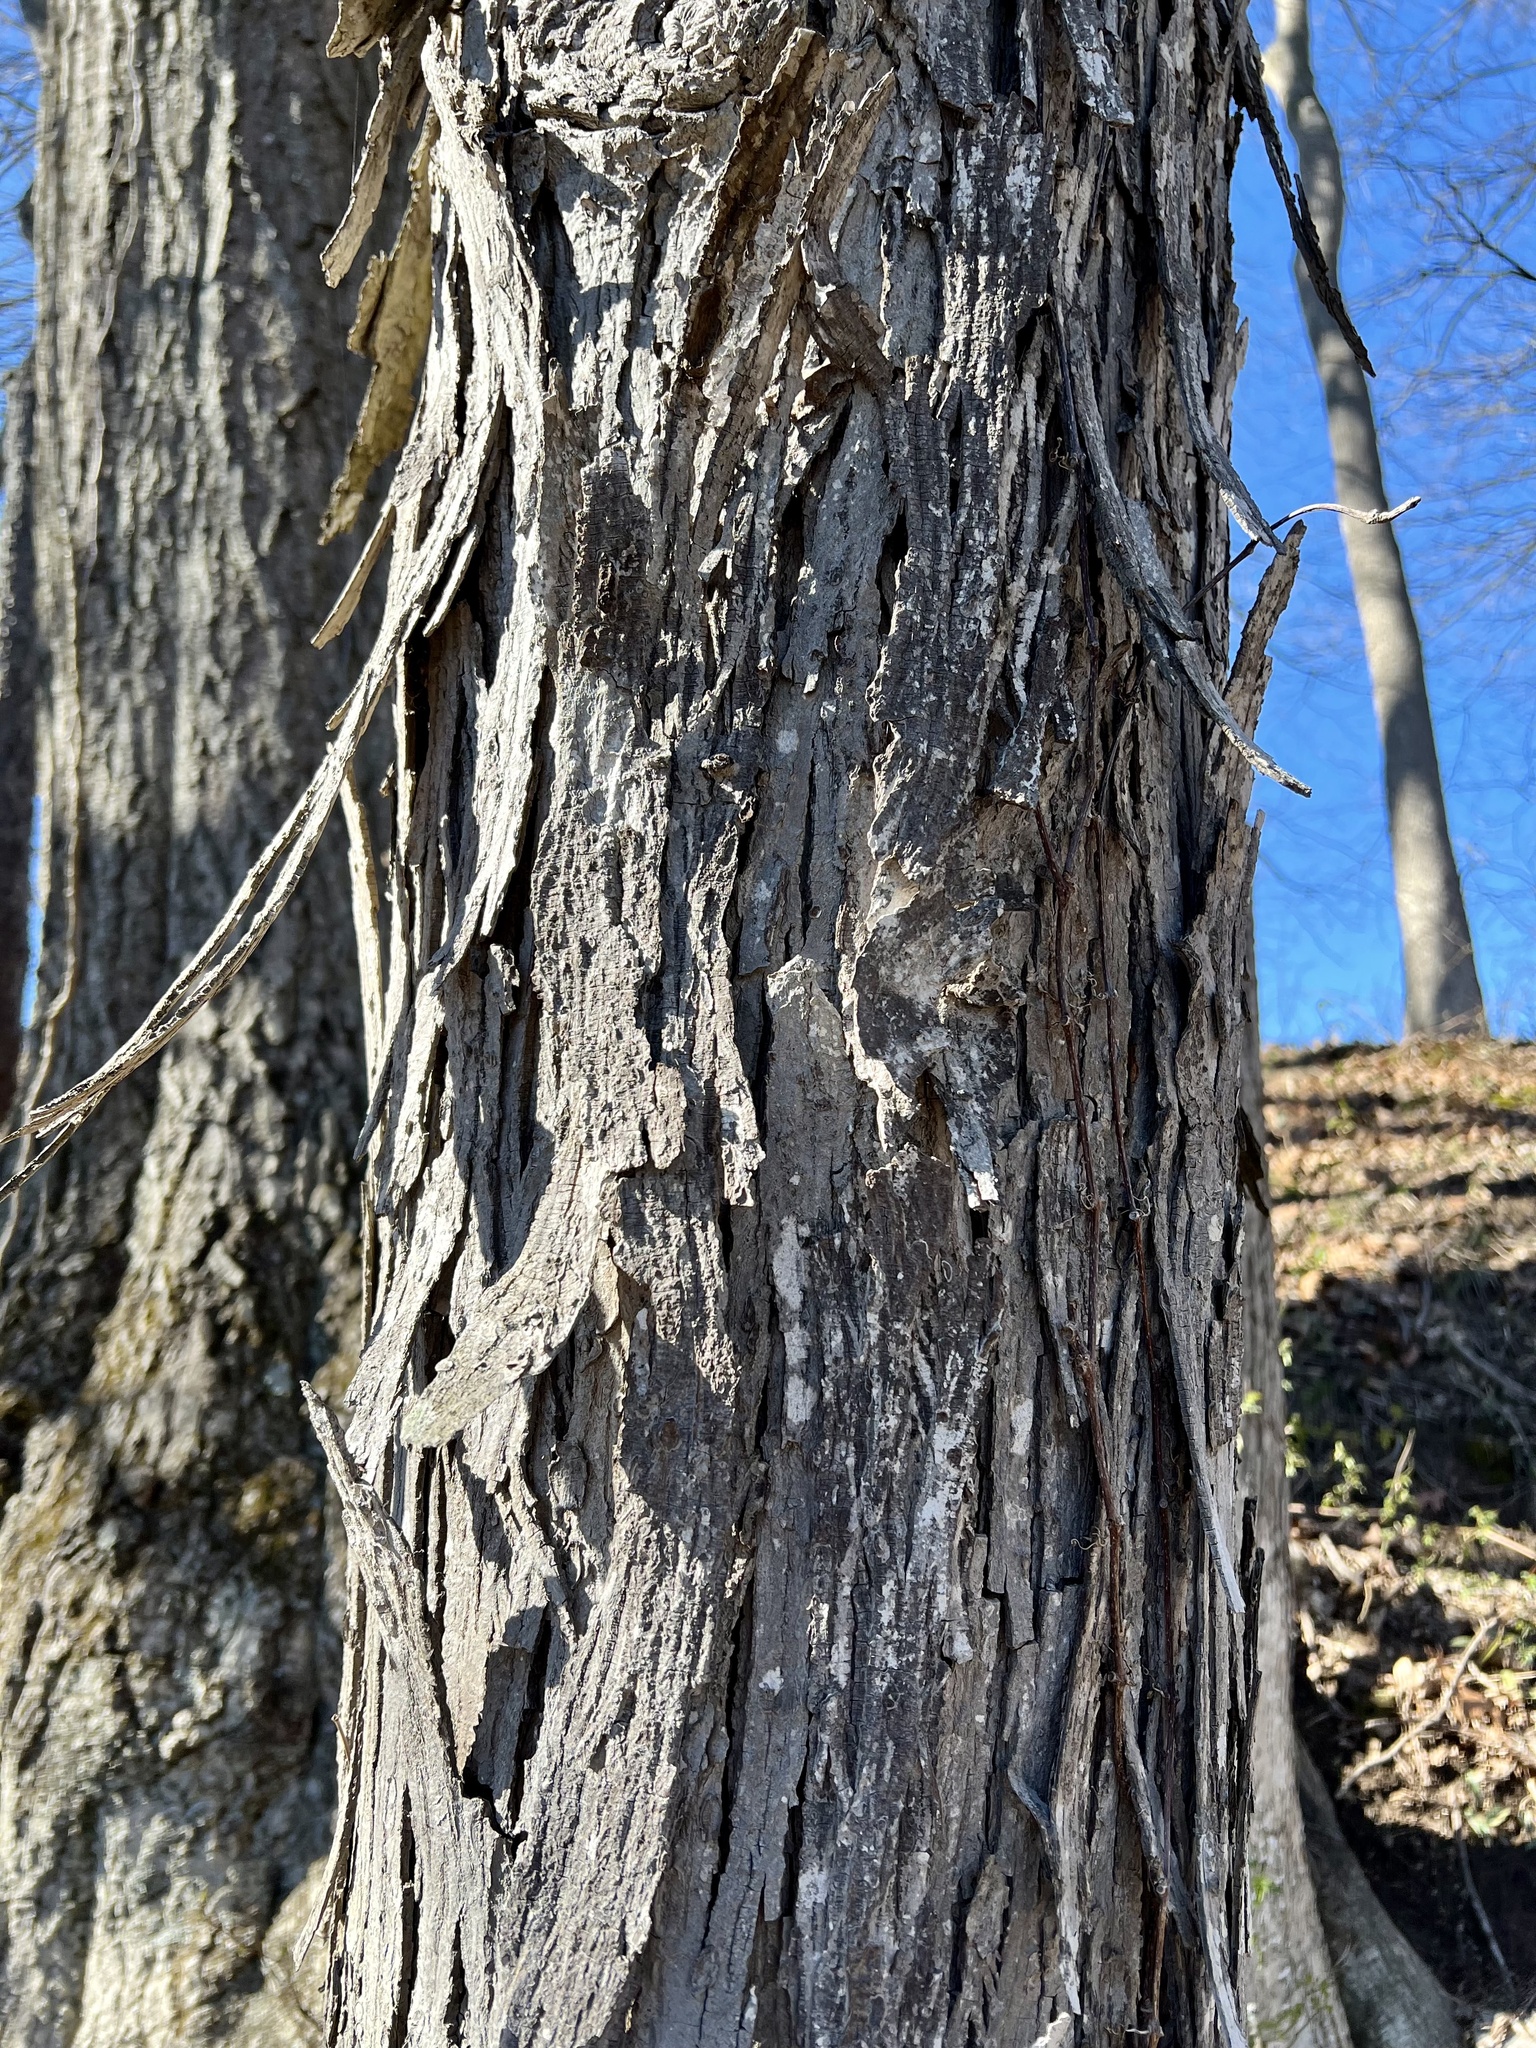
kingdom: Plantae
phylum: Tracheophyta
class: Magnoliopsida
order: Fagales
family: Juglandaceae
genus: Carya
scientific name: Carya ovata
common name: Shagbark hickory
